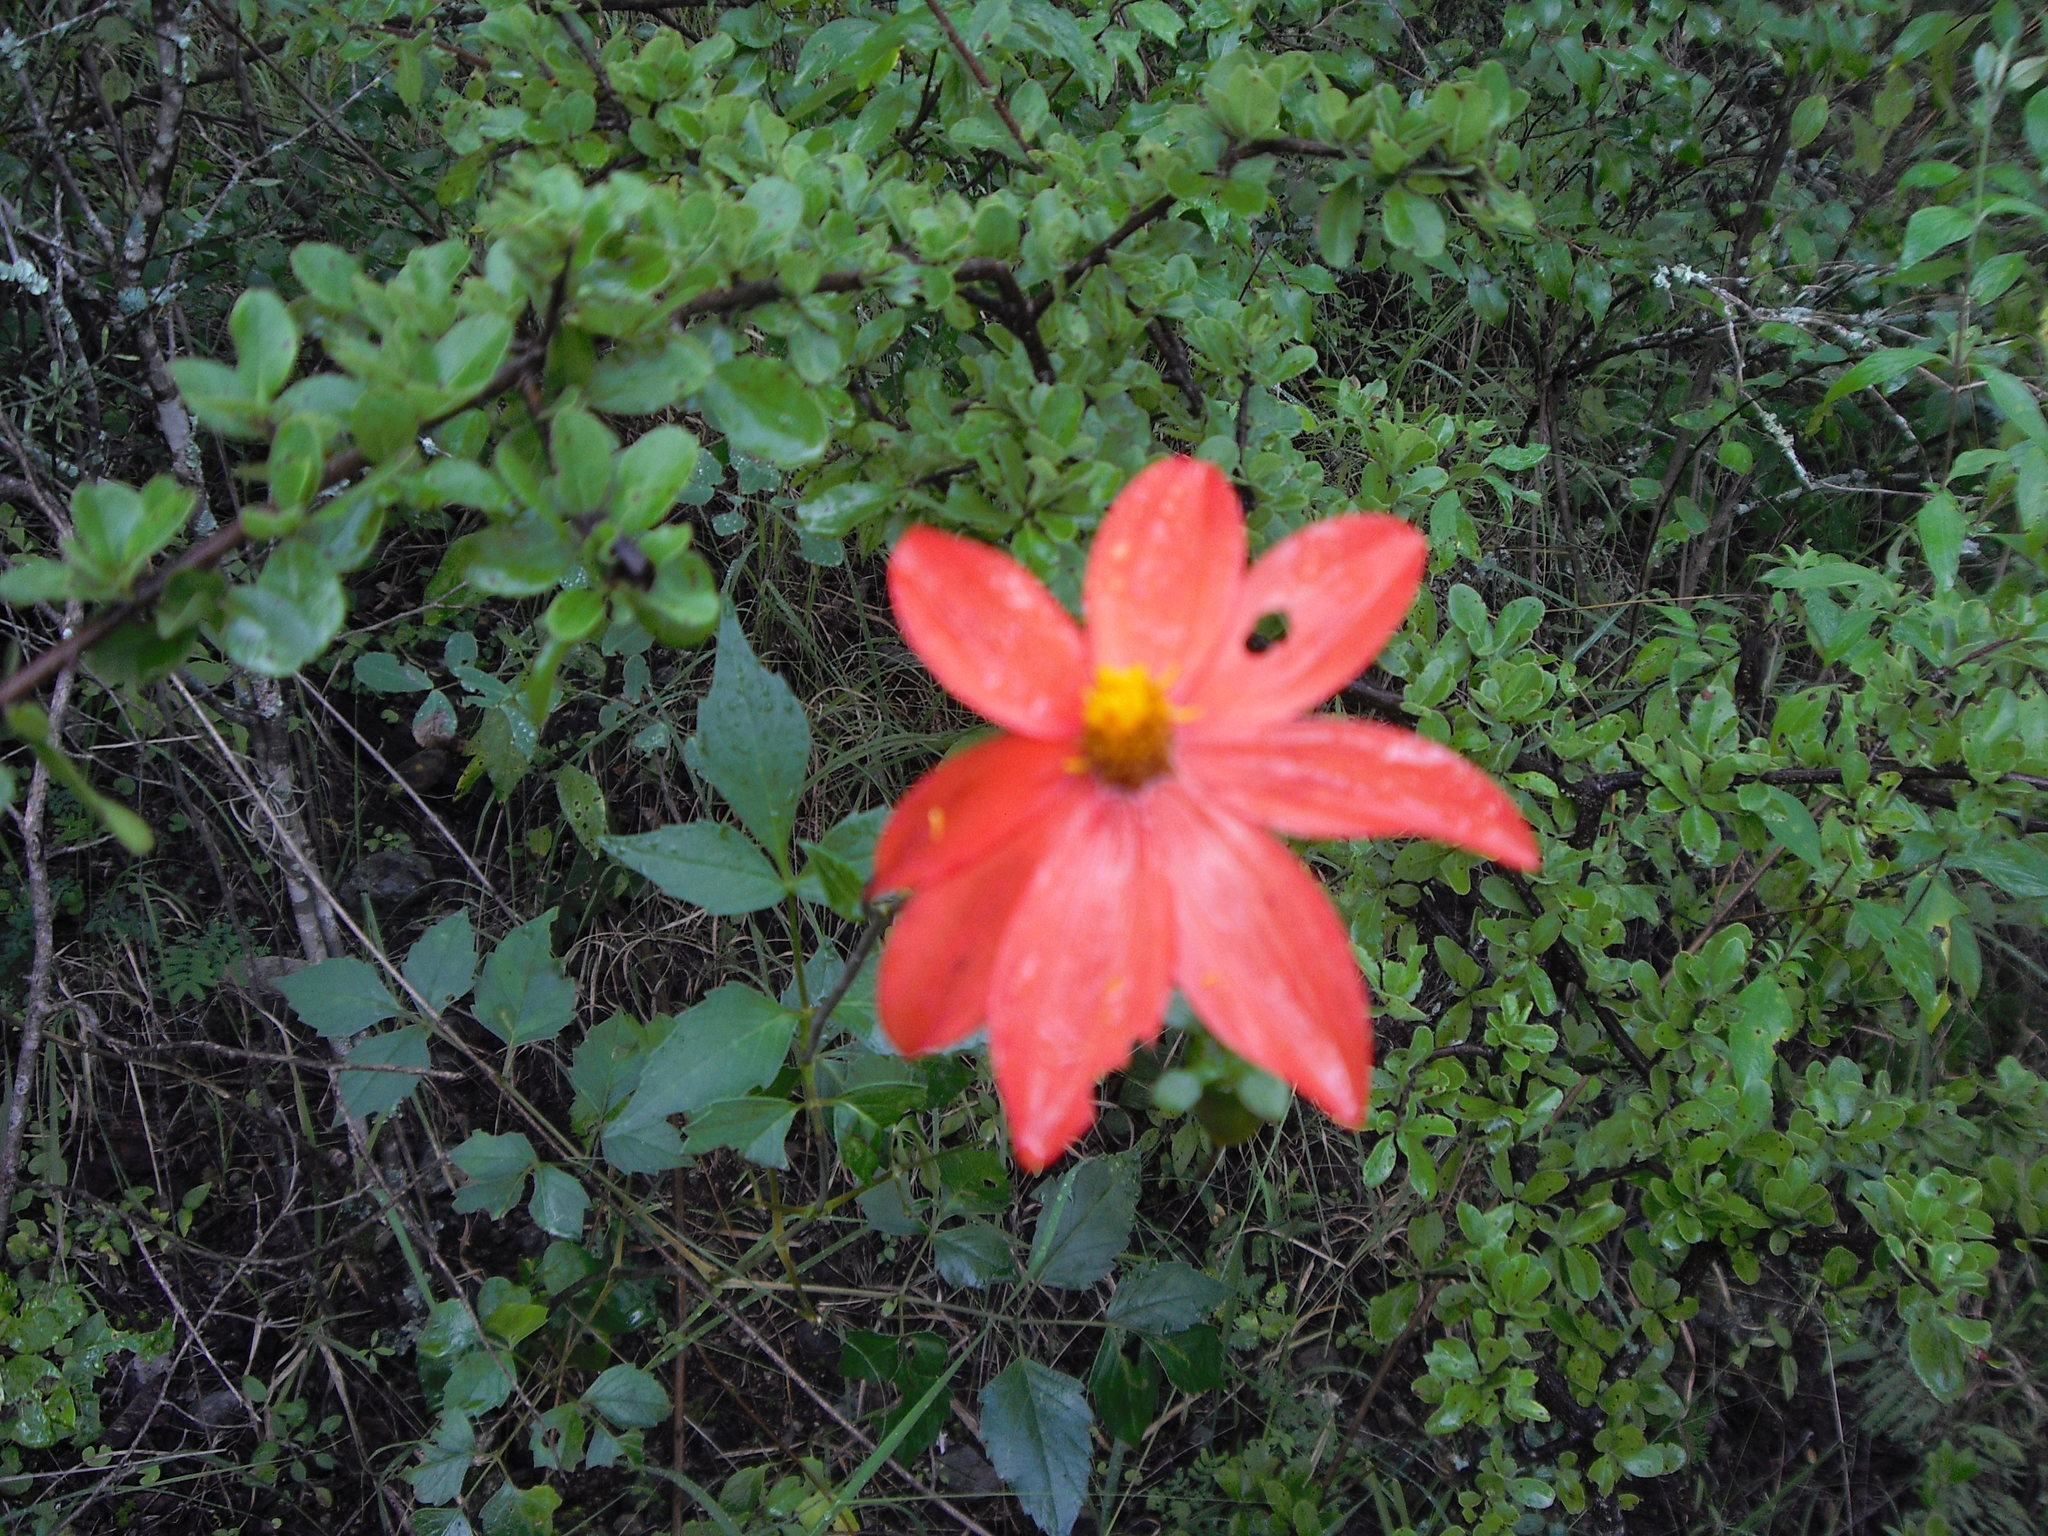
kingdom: Plantae
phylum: Tracheophyta
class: Magnoliopsida
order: Asterales
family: Asteraceae
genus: Dahlia
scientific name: Dahlia coccinea
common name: Red dahlia
